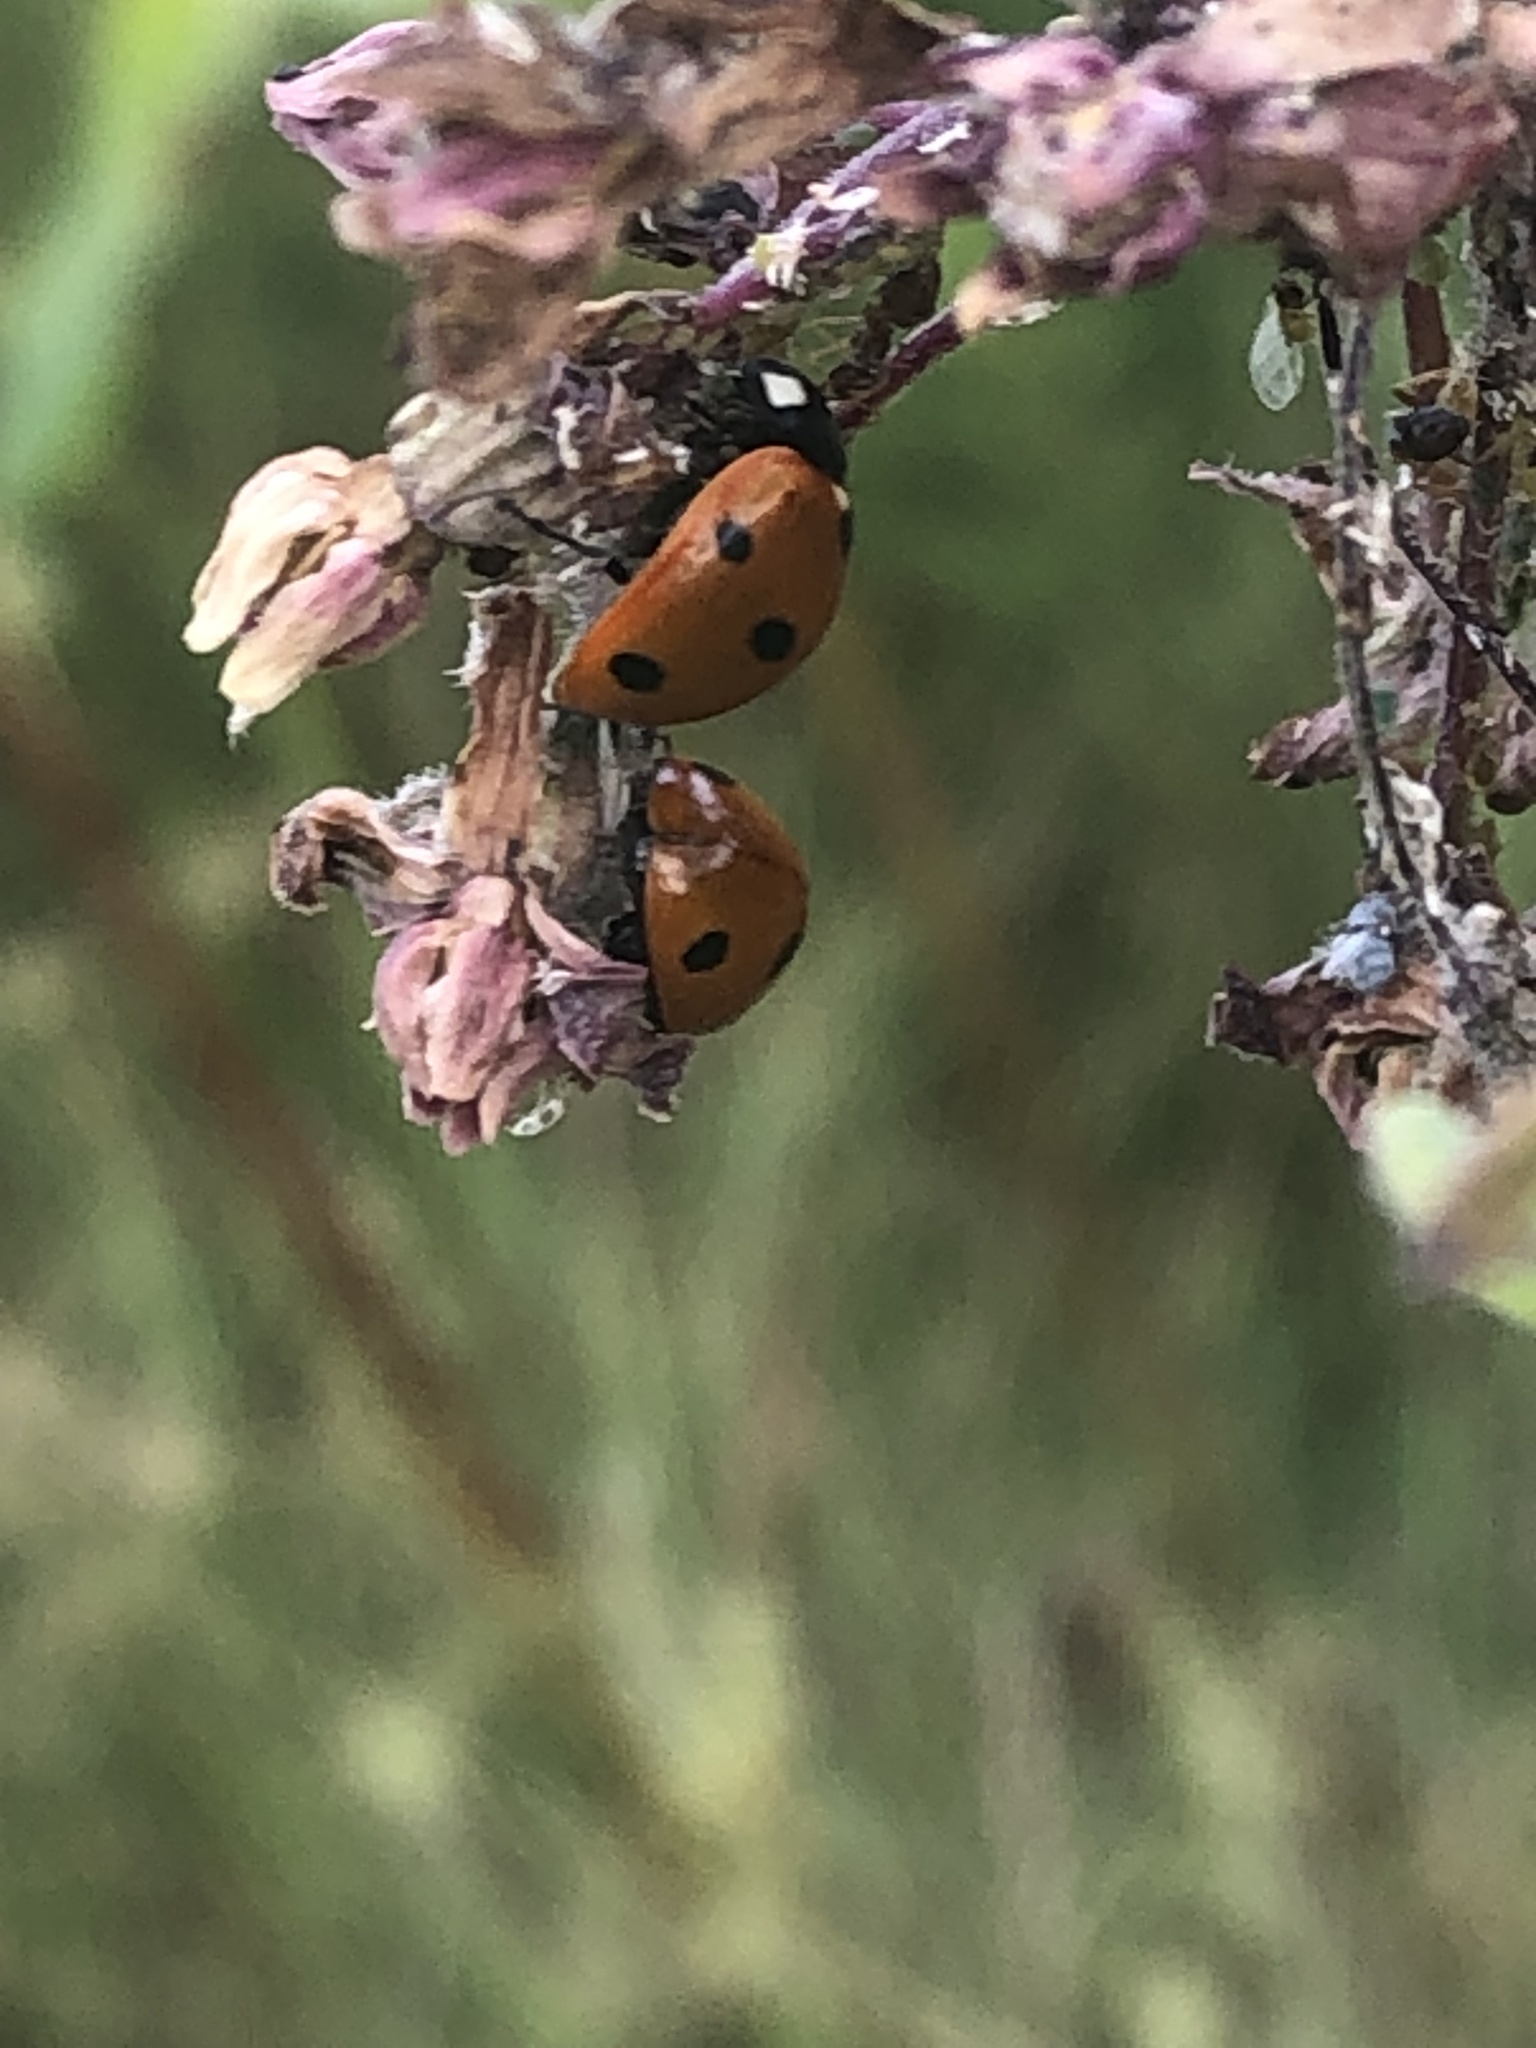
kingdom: Animalia
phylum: Arthropoda
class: Insecta
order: Coleoptera
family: Coccinellidae
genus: Coccinella
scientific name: Coccinella septempunctata
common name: Sevenspotted lady beetle
